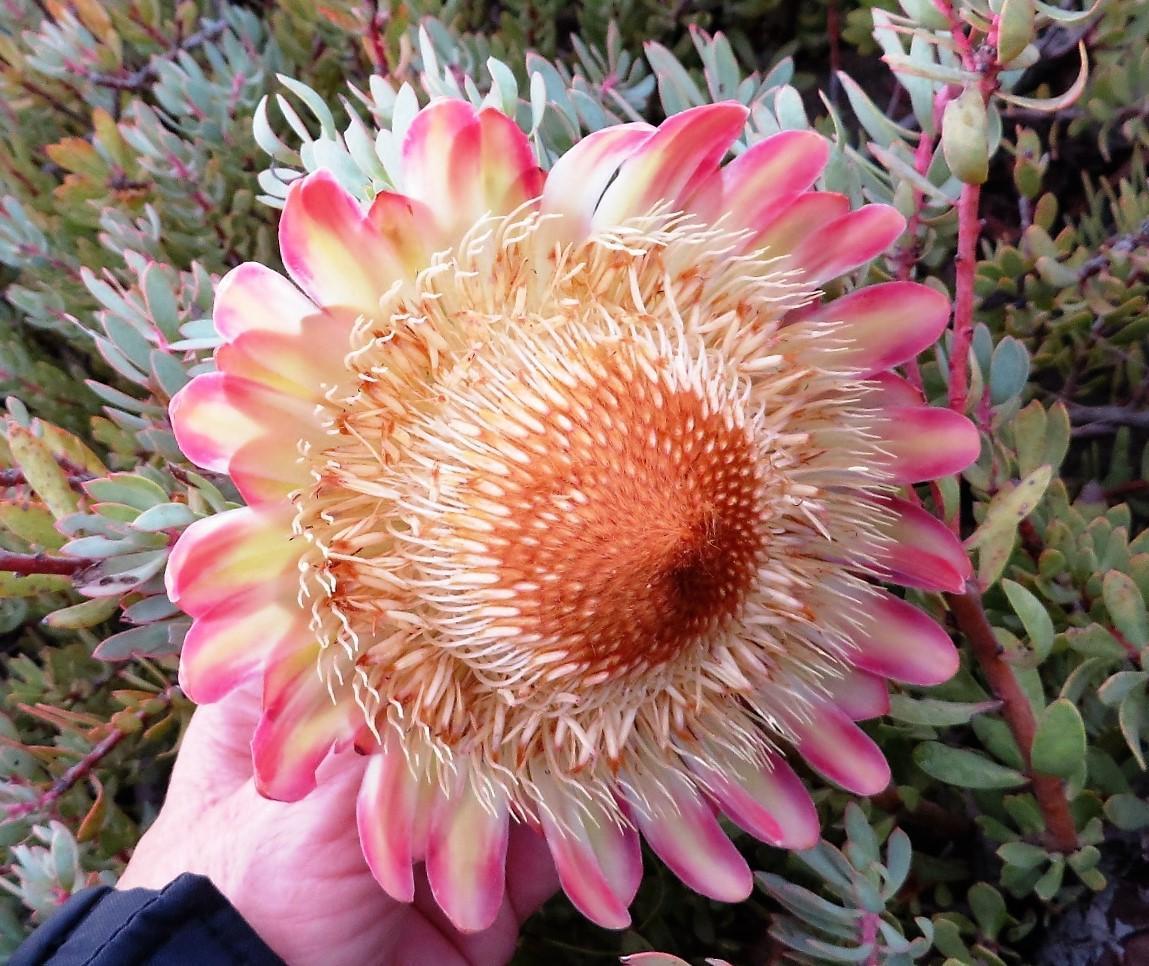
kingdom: Plantae
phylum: Tracheophyta
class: Magnoliopsida
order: Proteales
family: Proteaceae
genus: Protea
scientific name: Protea sulphurea
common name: Sulphur sugarbush
